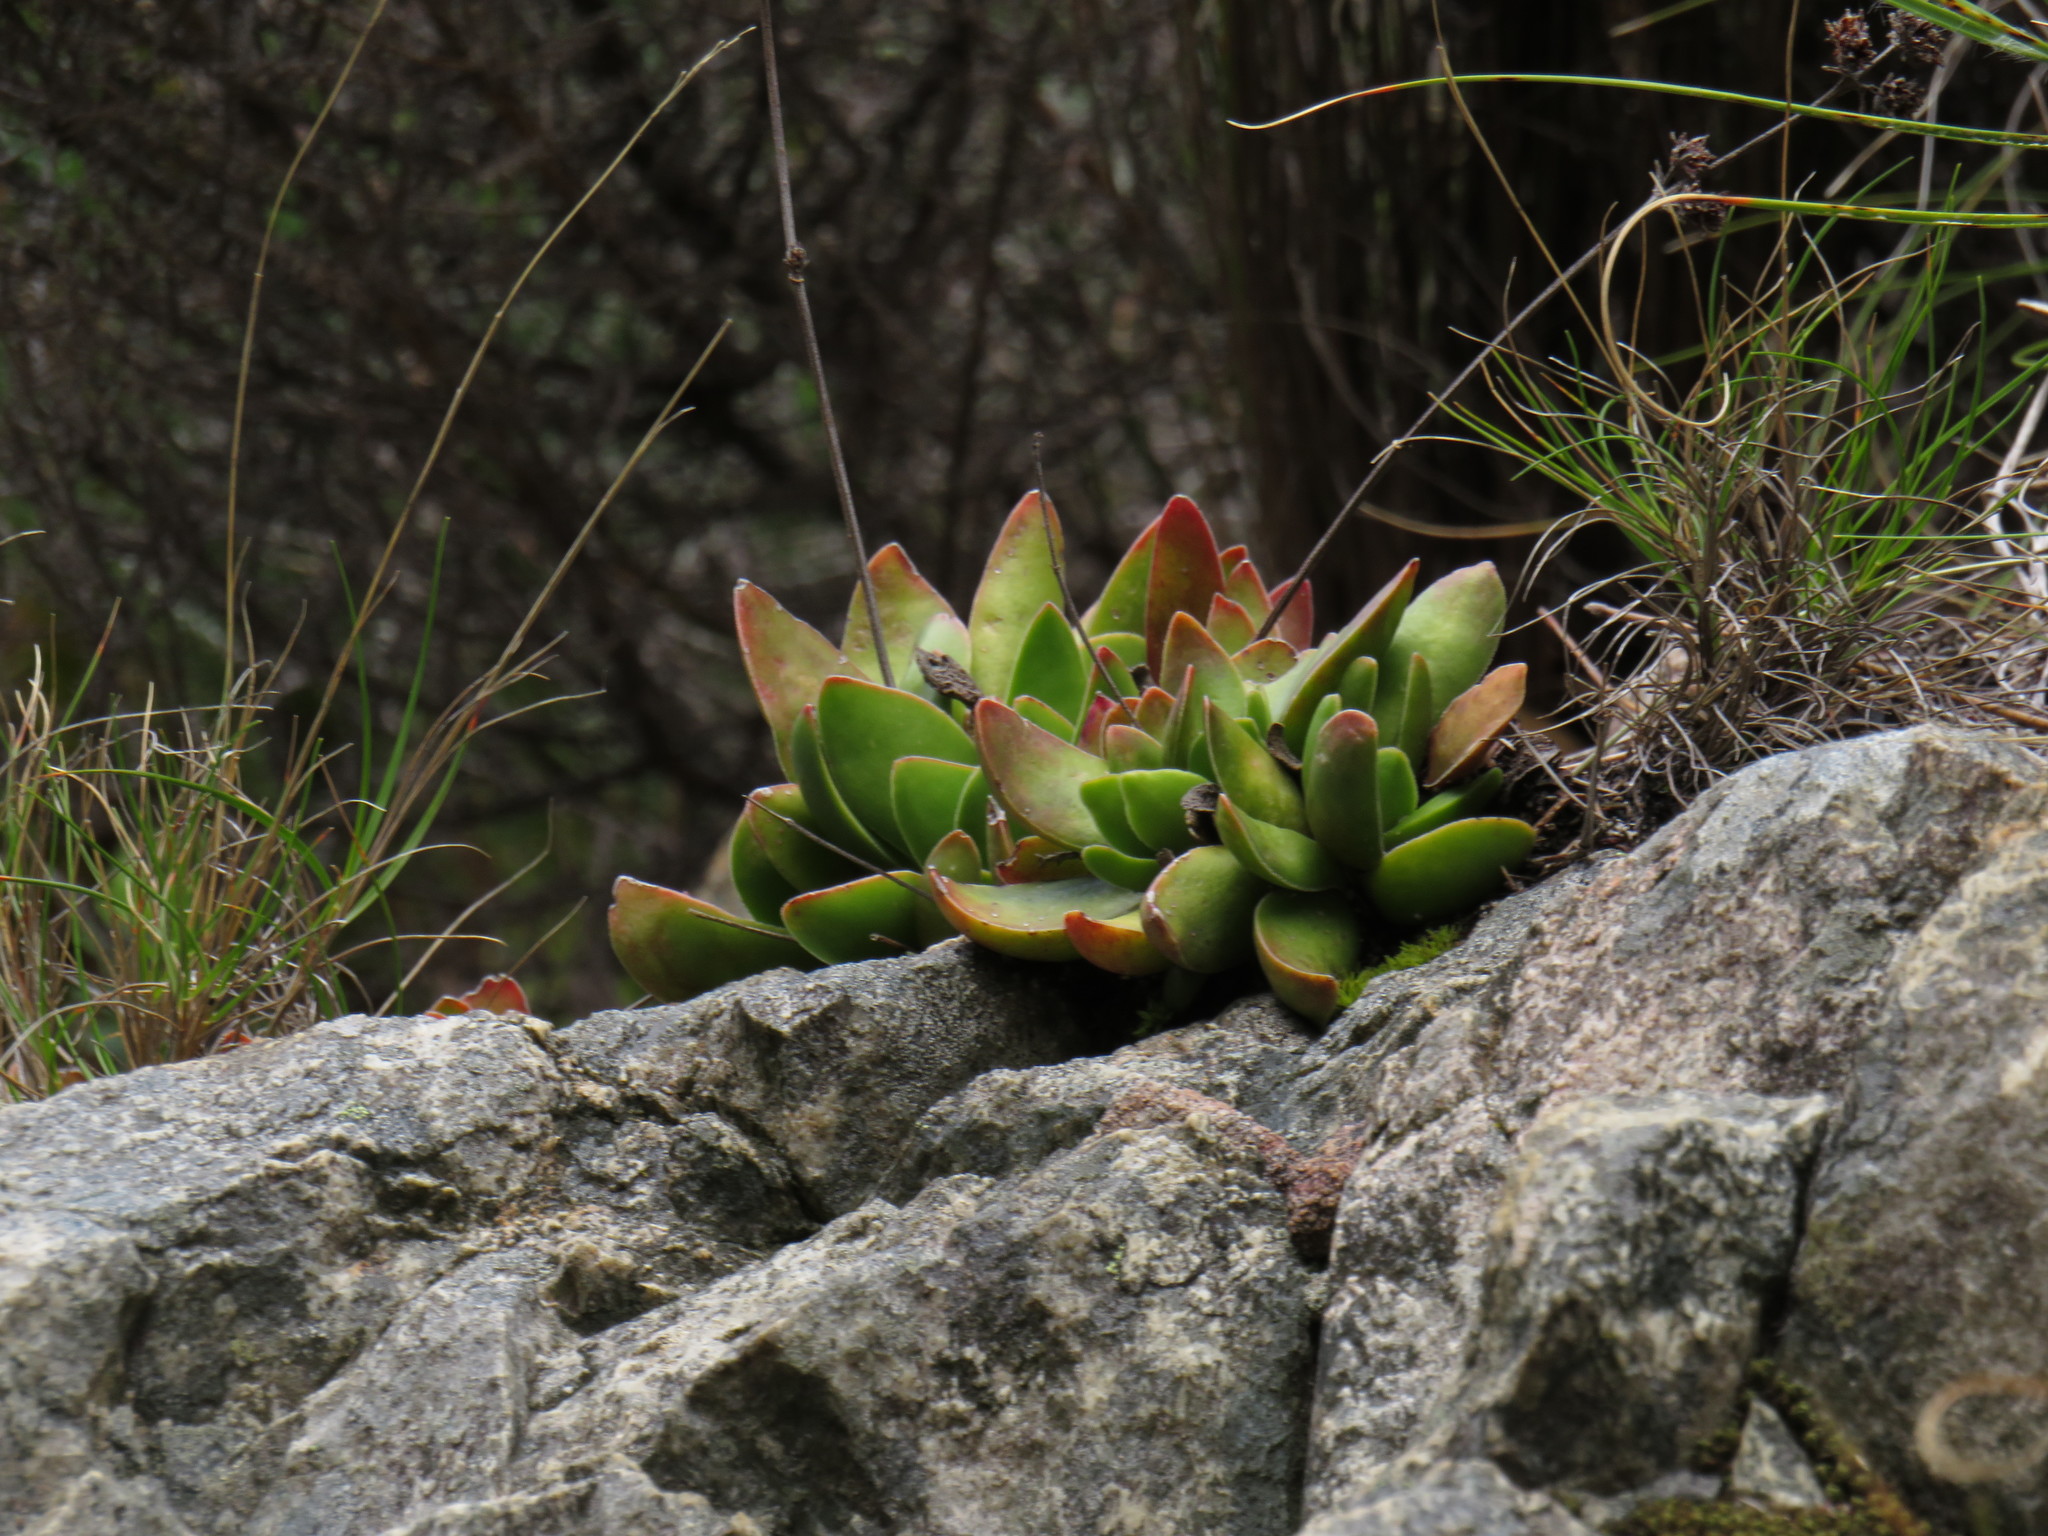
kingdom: Plantae
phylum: Tracheophyta
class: Magnoliopsida
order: Saxifragales
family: Crassulaceae
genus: Crassula
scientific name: Crassula nudicaulis
